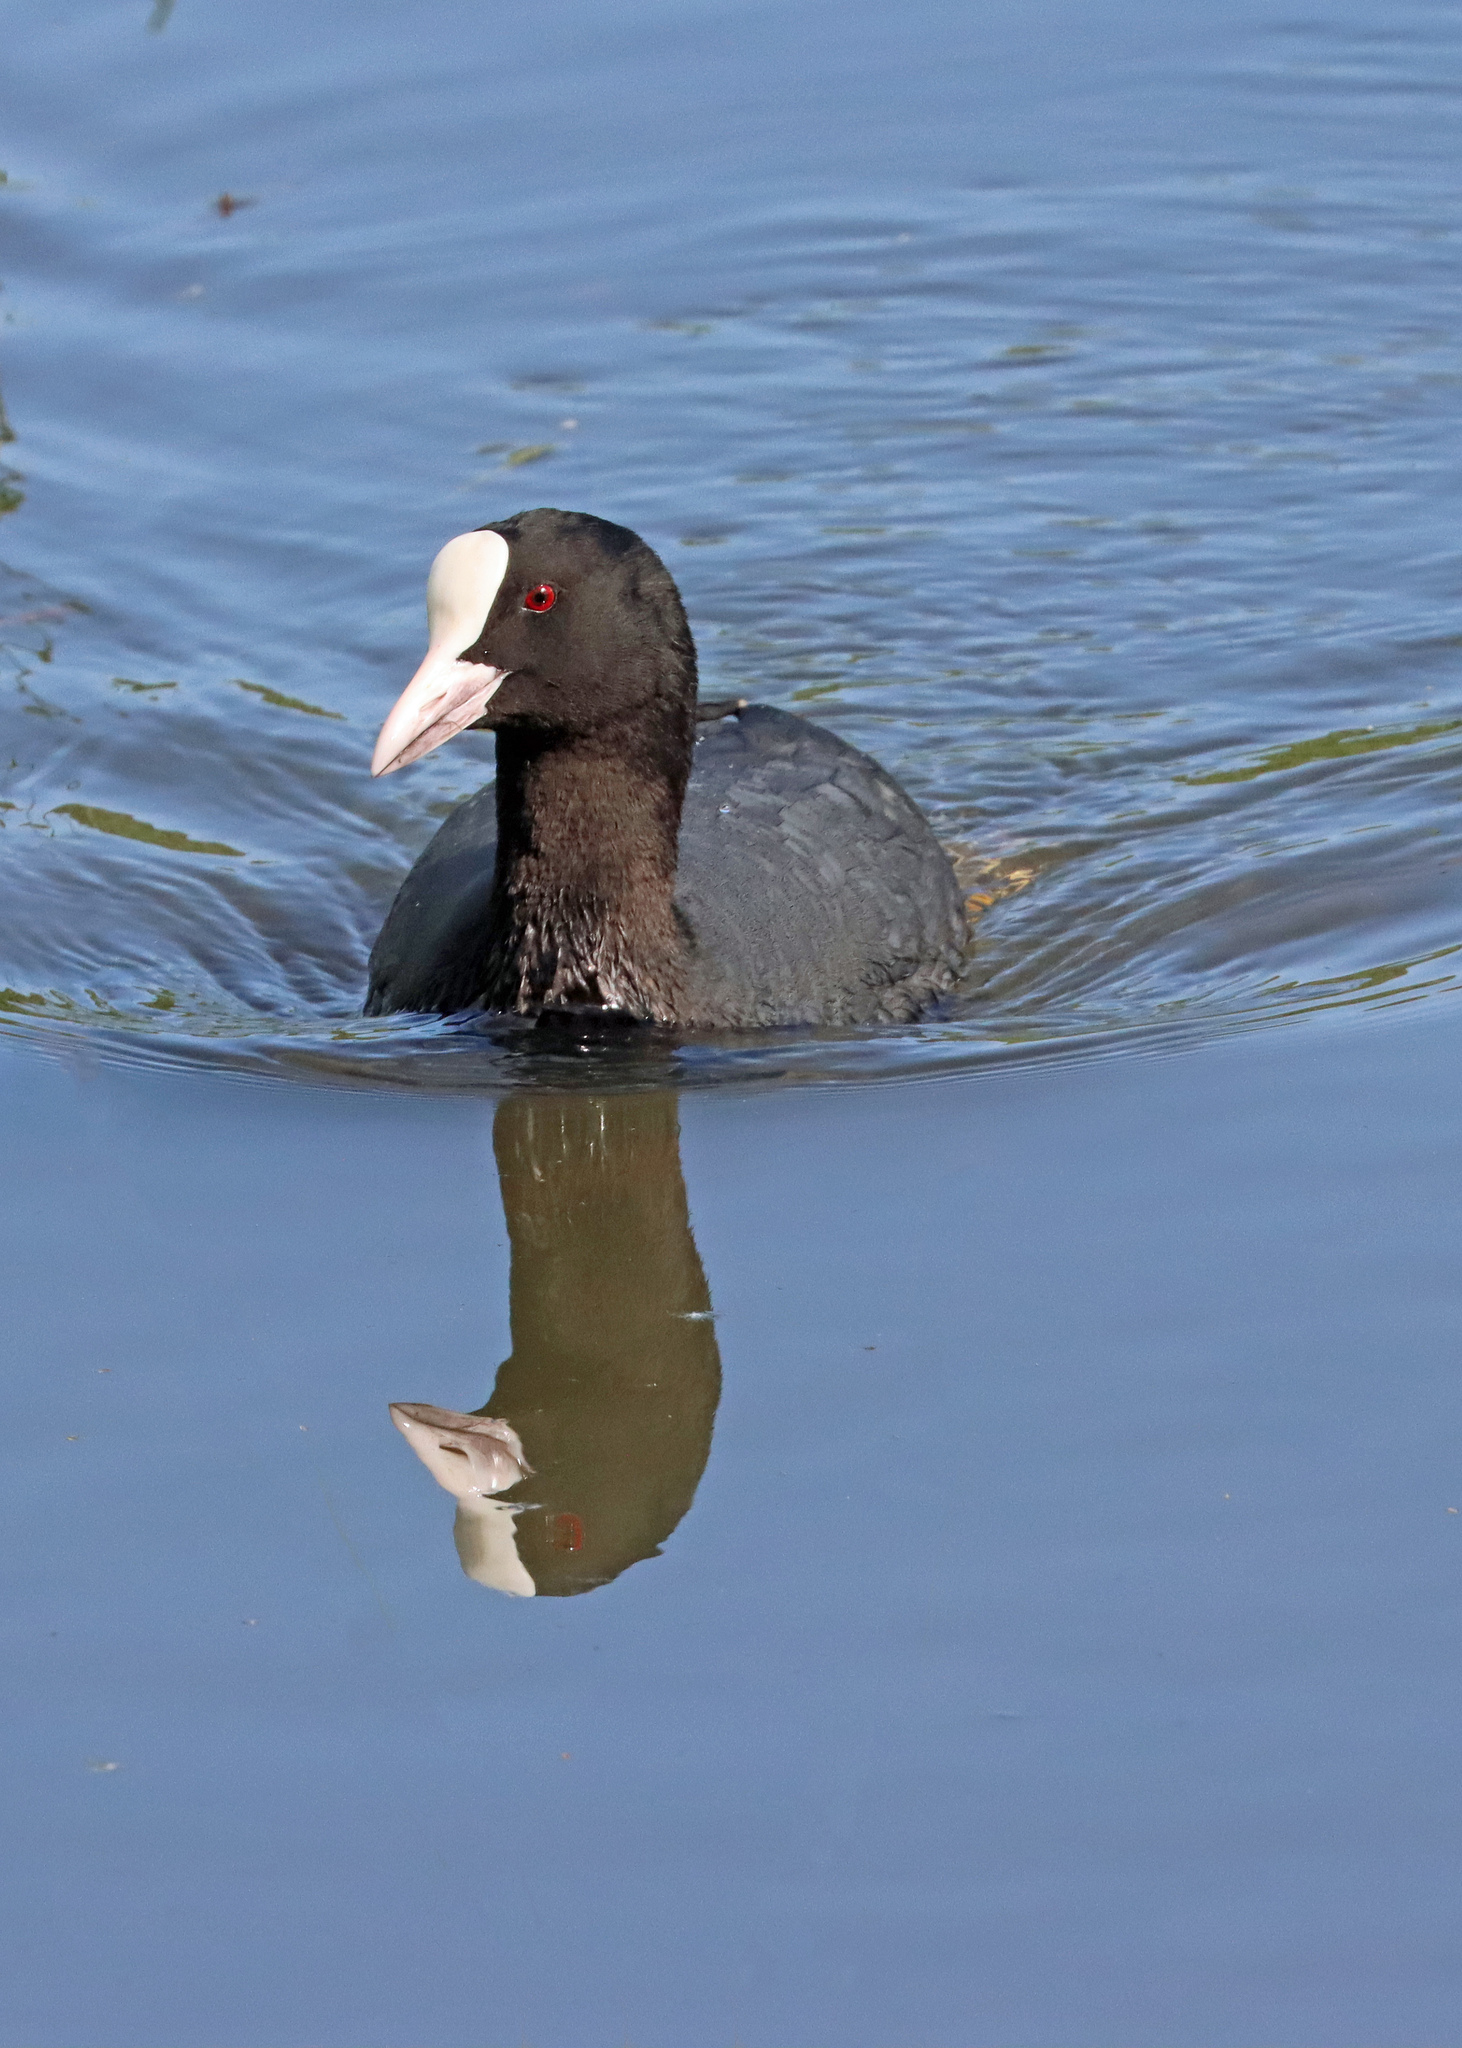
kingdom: Animalia
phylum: Chordata
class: Aves
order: Gruiformes
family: Rallidae
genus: Fulica
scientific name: Fulica atra
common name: Eurasian coot
